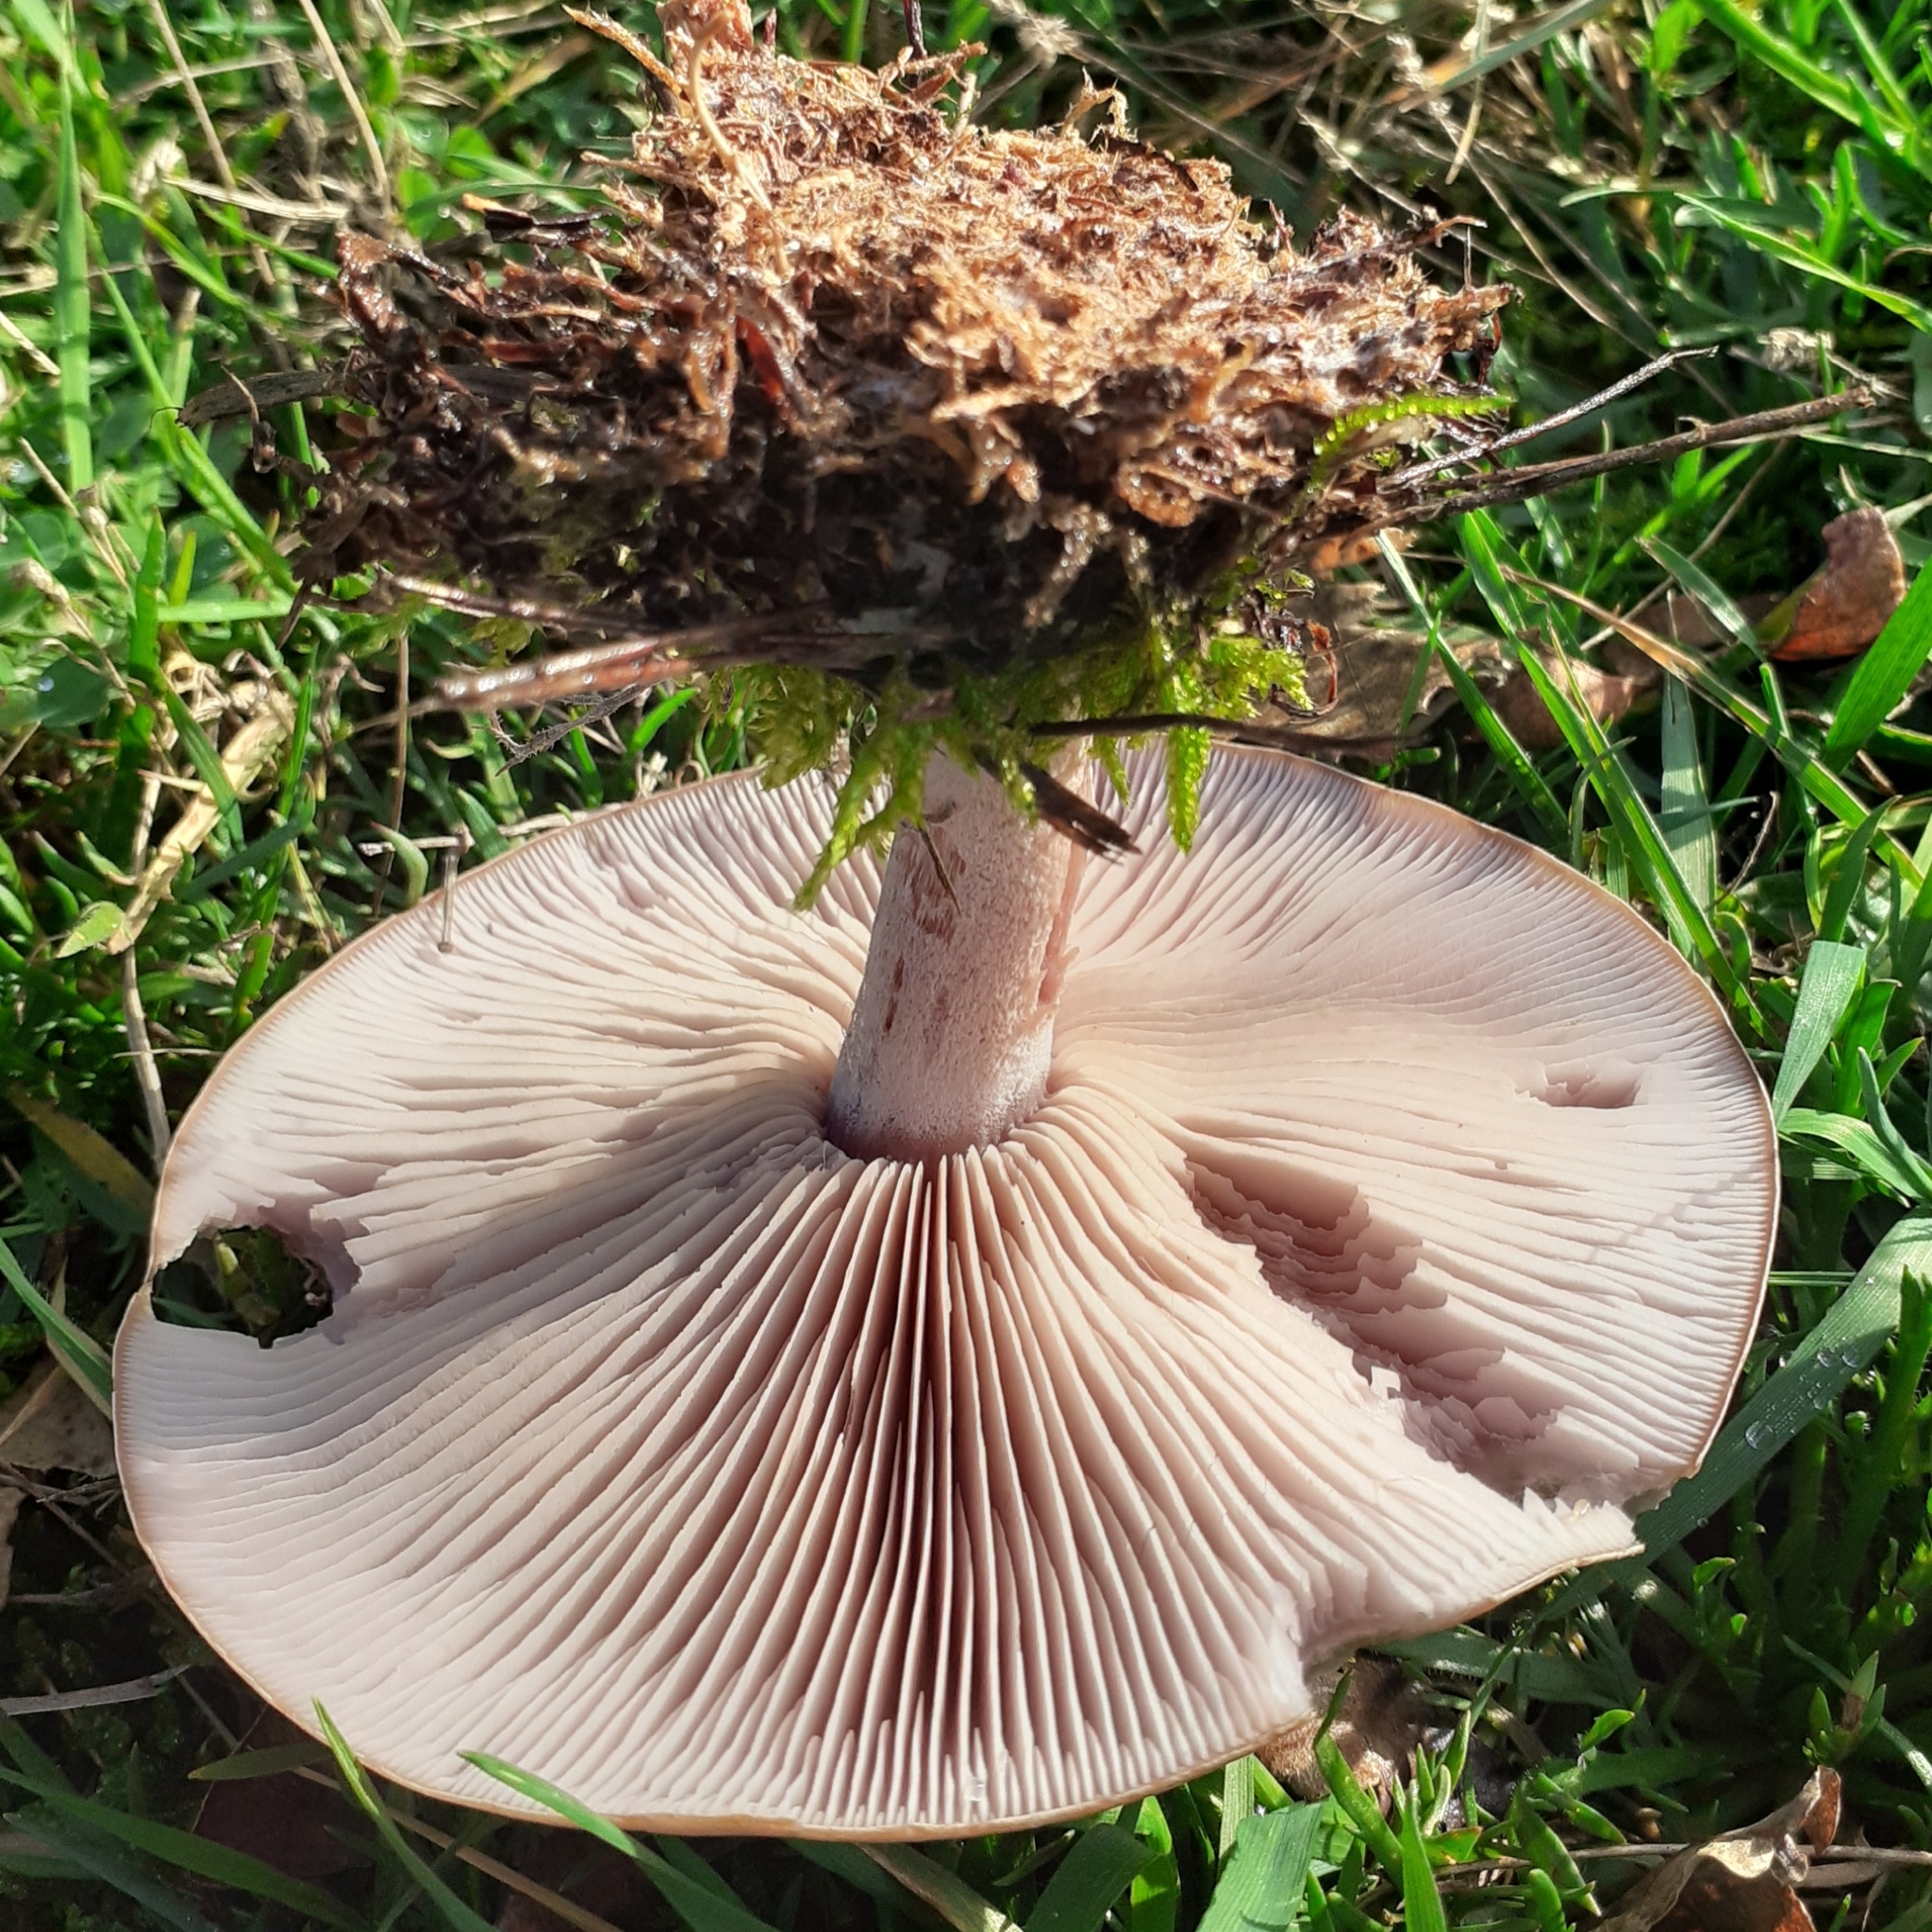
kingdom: Fungi
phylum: Basidiomycota
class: Agaricomycetes
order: Agaricales
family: Tricholomataceae
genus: Collybia
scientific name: Collybia
